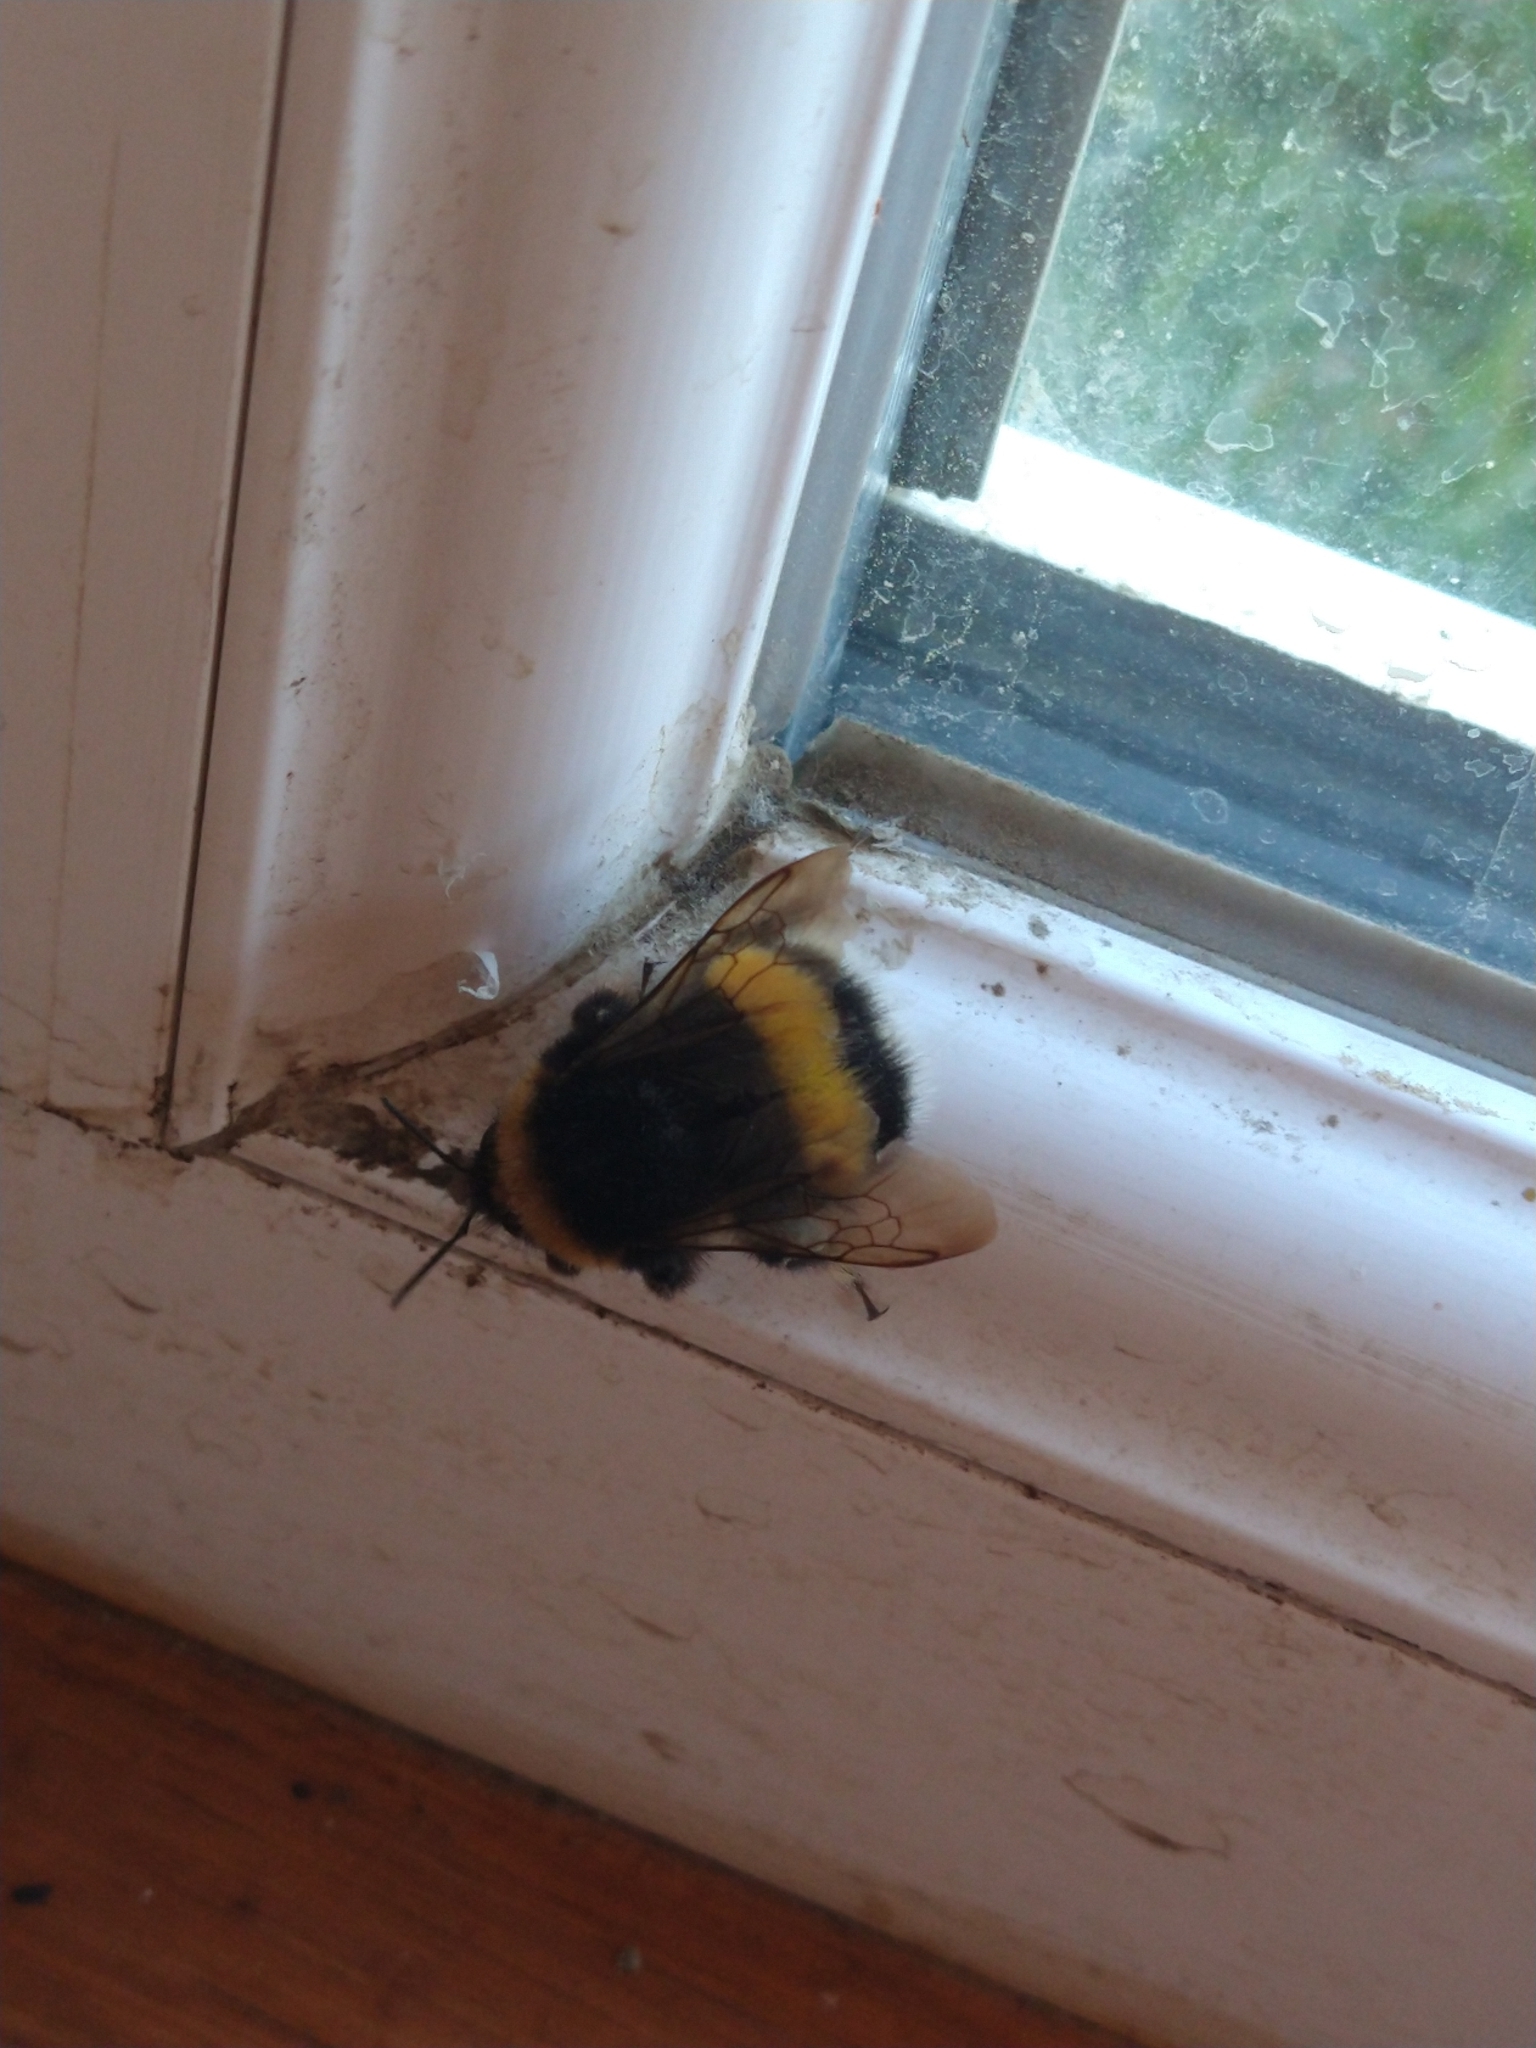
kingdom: Animalia
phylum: Arthropoda
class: Insecta
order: Hymenoptera
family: Apidae
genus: Bombus
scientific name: Bombus terrestris
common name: Buff-tailed bumblebee
